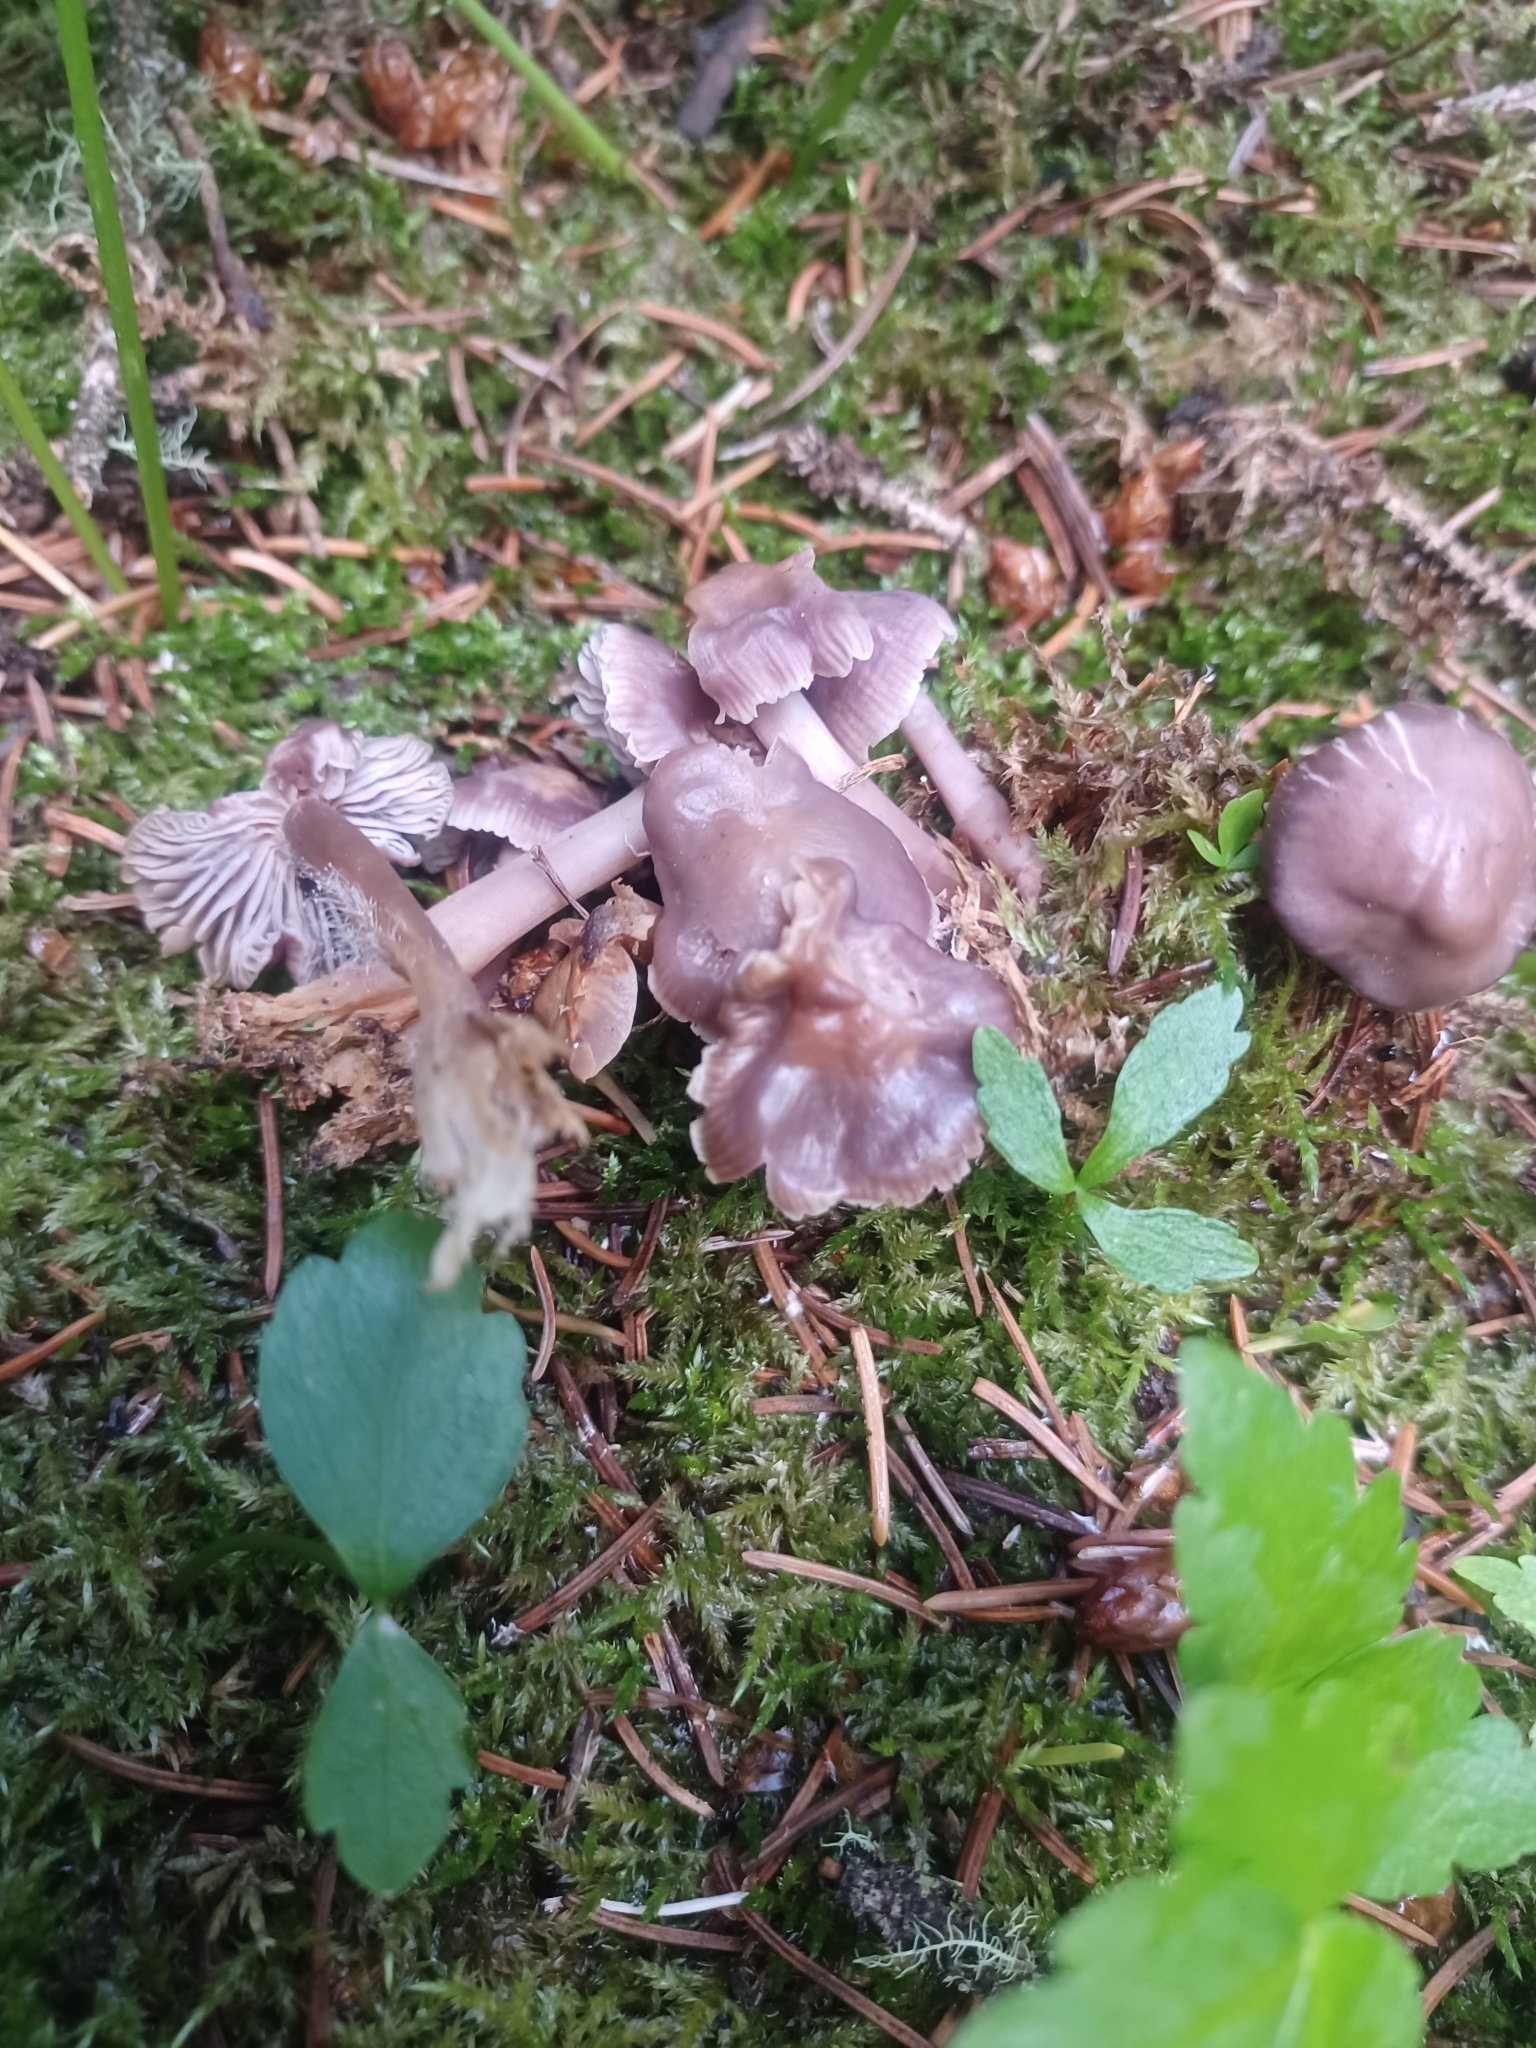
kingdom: Fungi
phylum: Basidiomycota
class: Agaricomycetes
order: Agaricales
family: Mycenaceae
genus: Mycena
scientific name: Mycena pura
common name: Lilac bonnet
